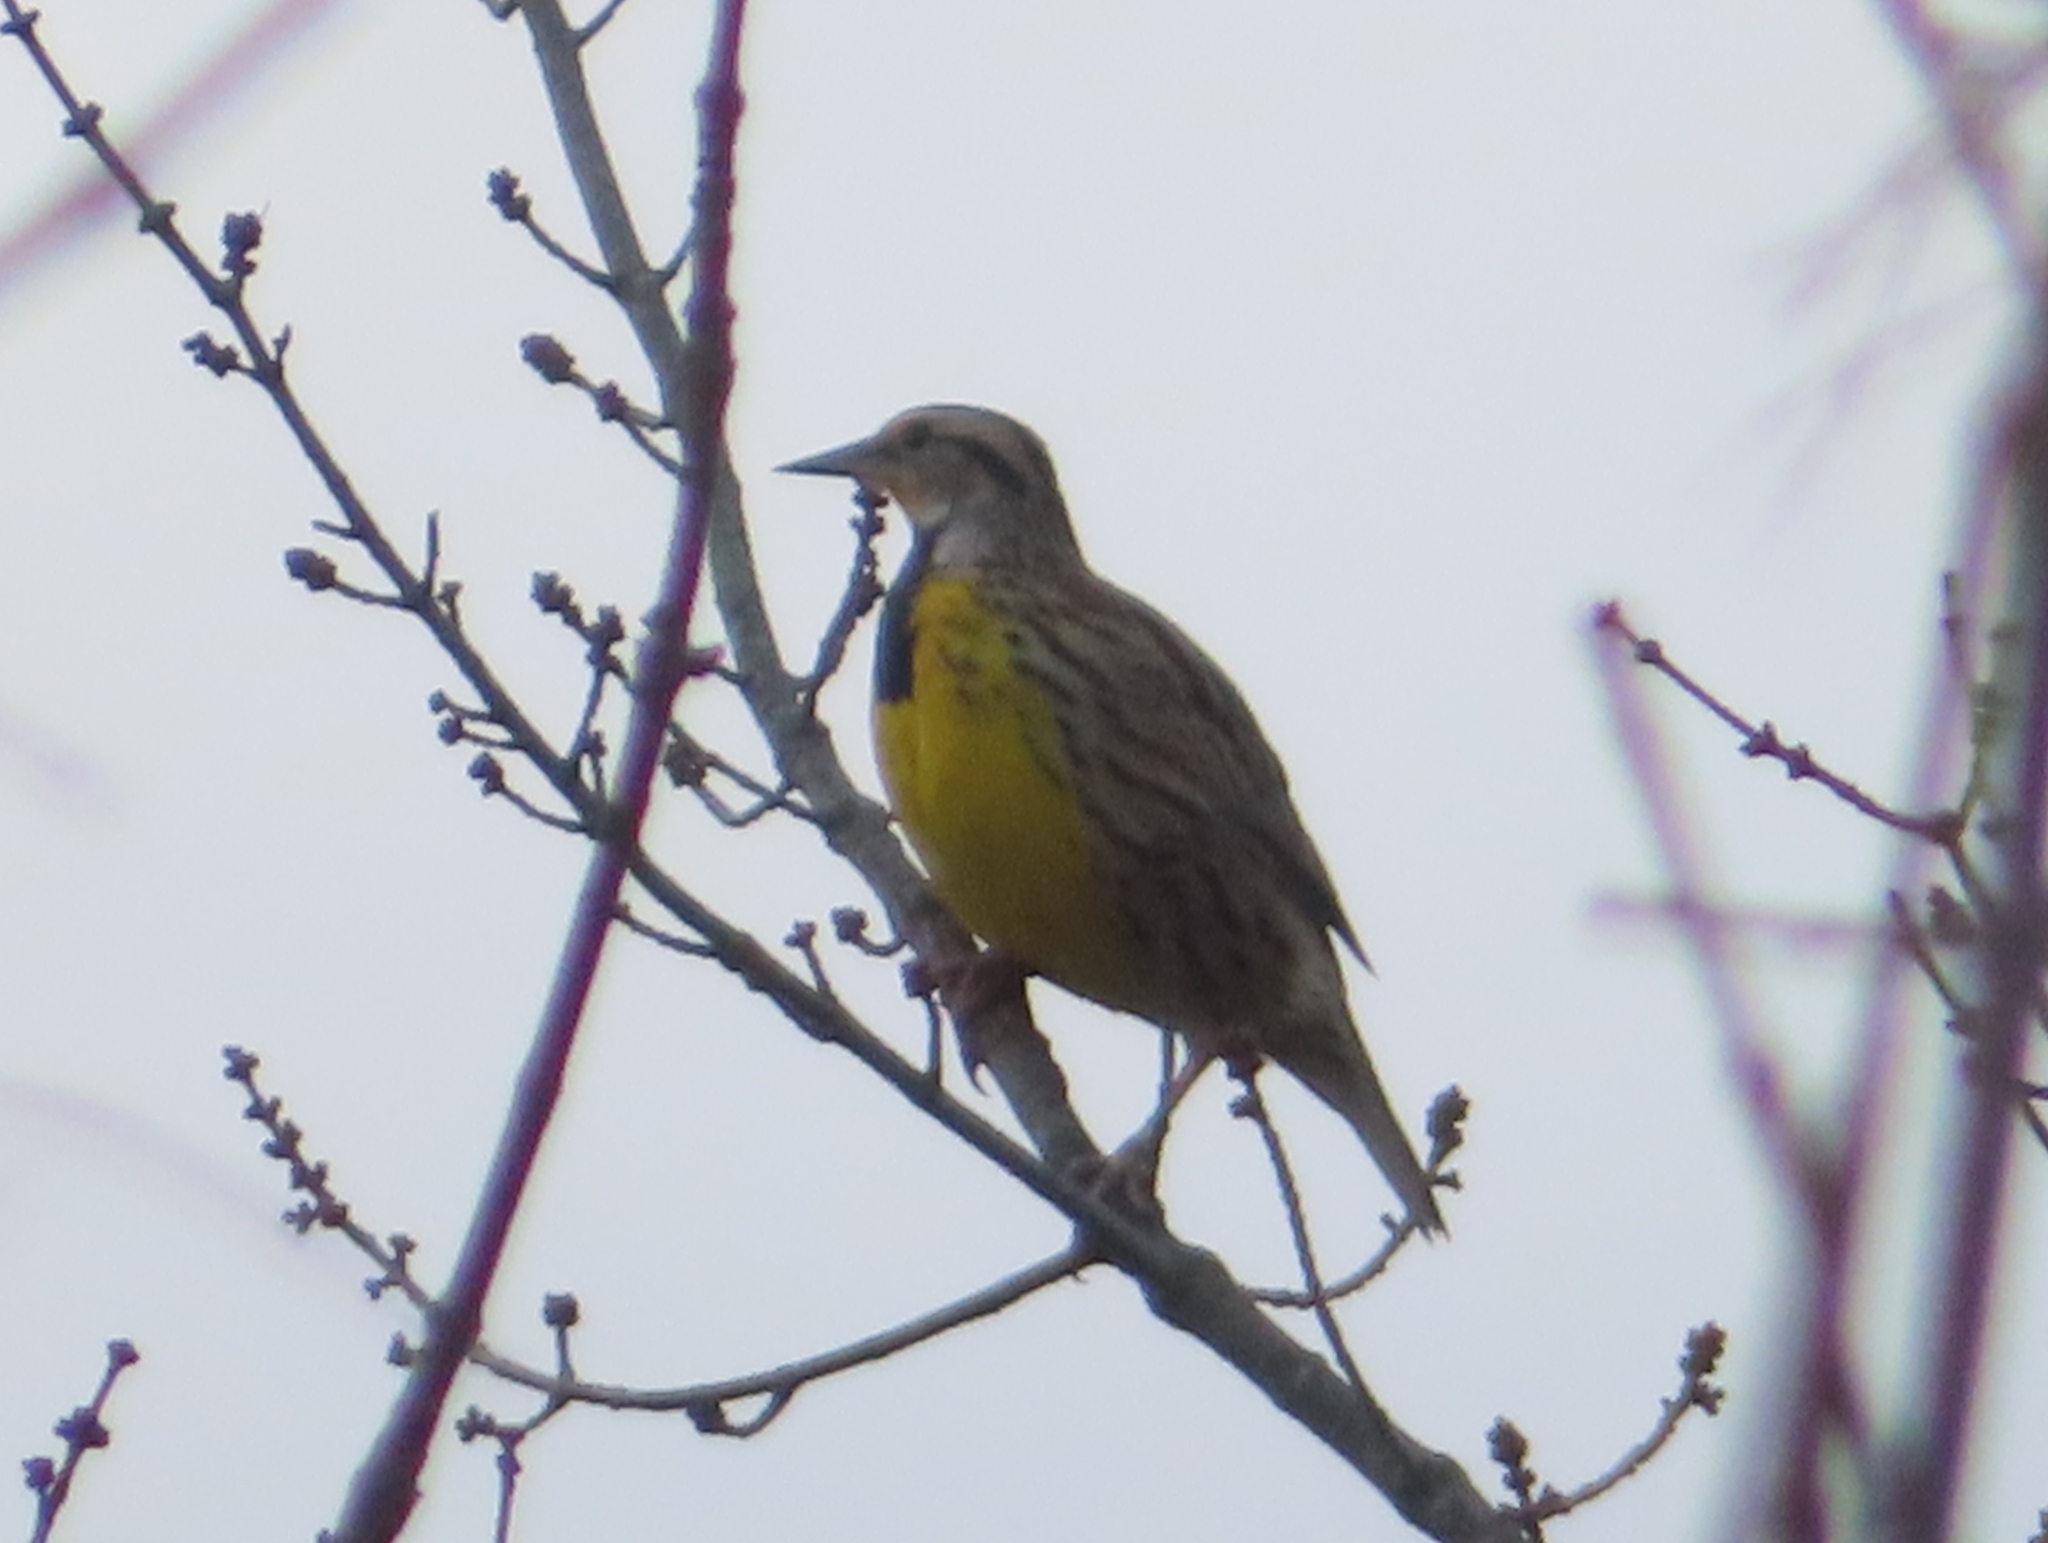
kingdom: Animalia
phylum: Chordata
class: Aves
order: Passeriformes
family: Icteridae
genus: Sturnella
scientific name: Sturnella magna
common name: Eastern meadowlark
